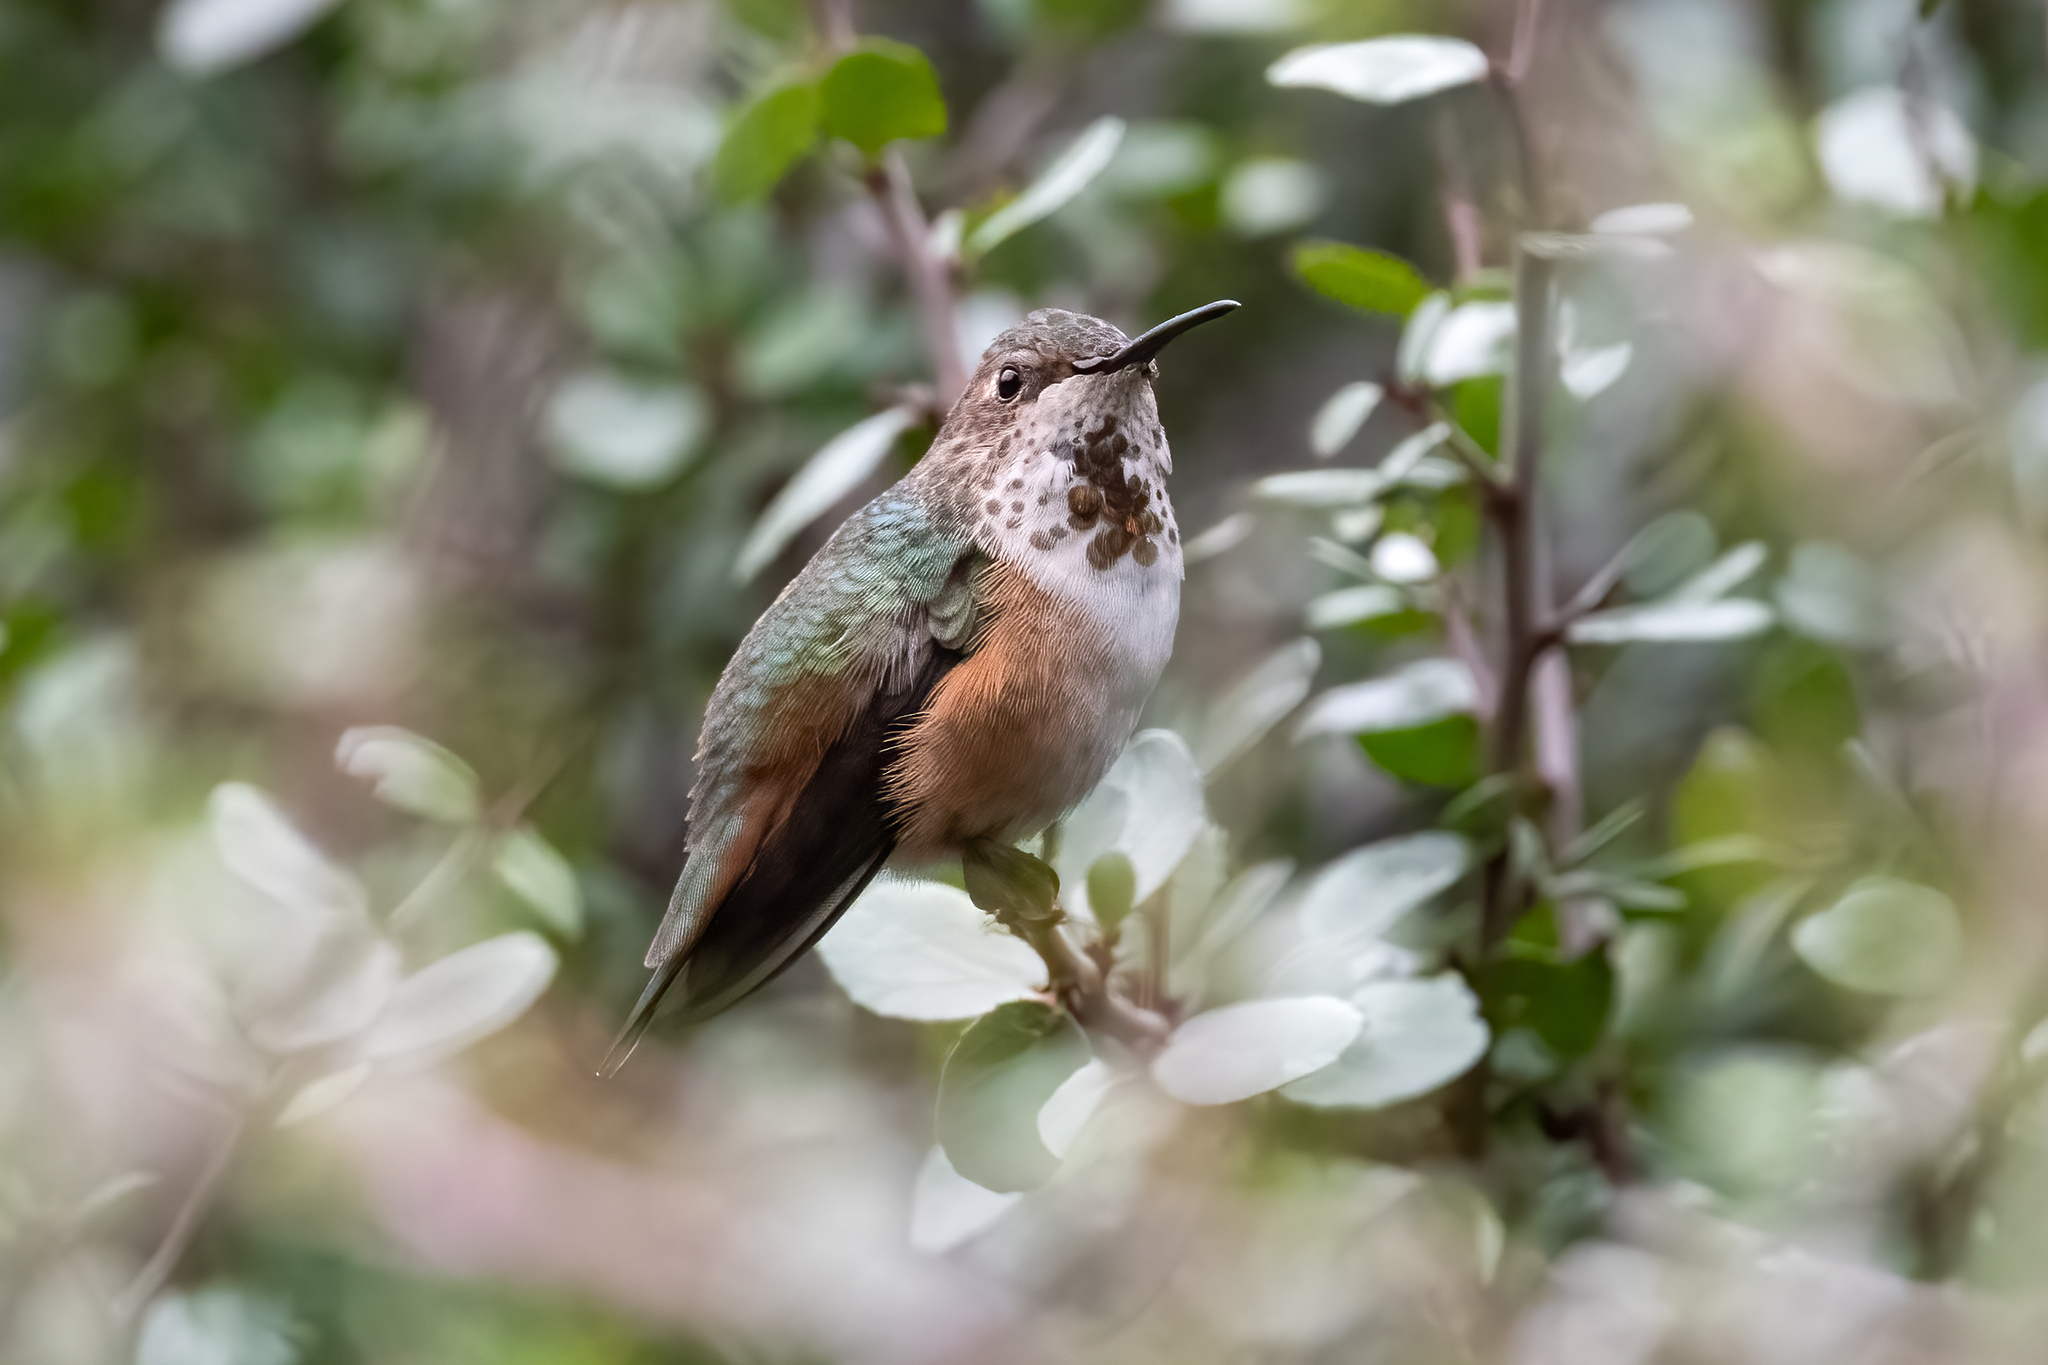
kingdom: Animalia
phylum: Chordata
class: Aves
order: Apodiformes
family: Trochilidae
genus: Selasphorus
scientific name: Selasphorus sasin
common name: Allen's hummingbird
